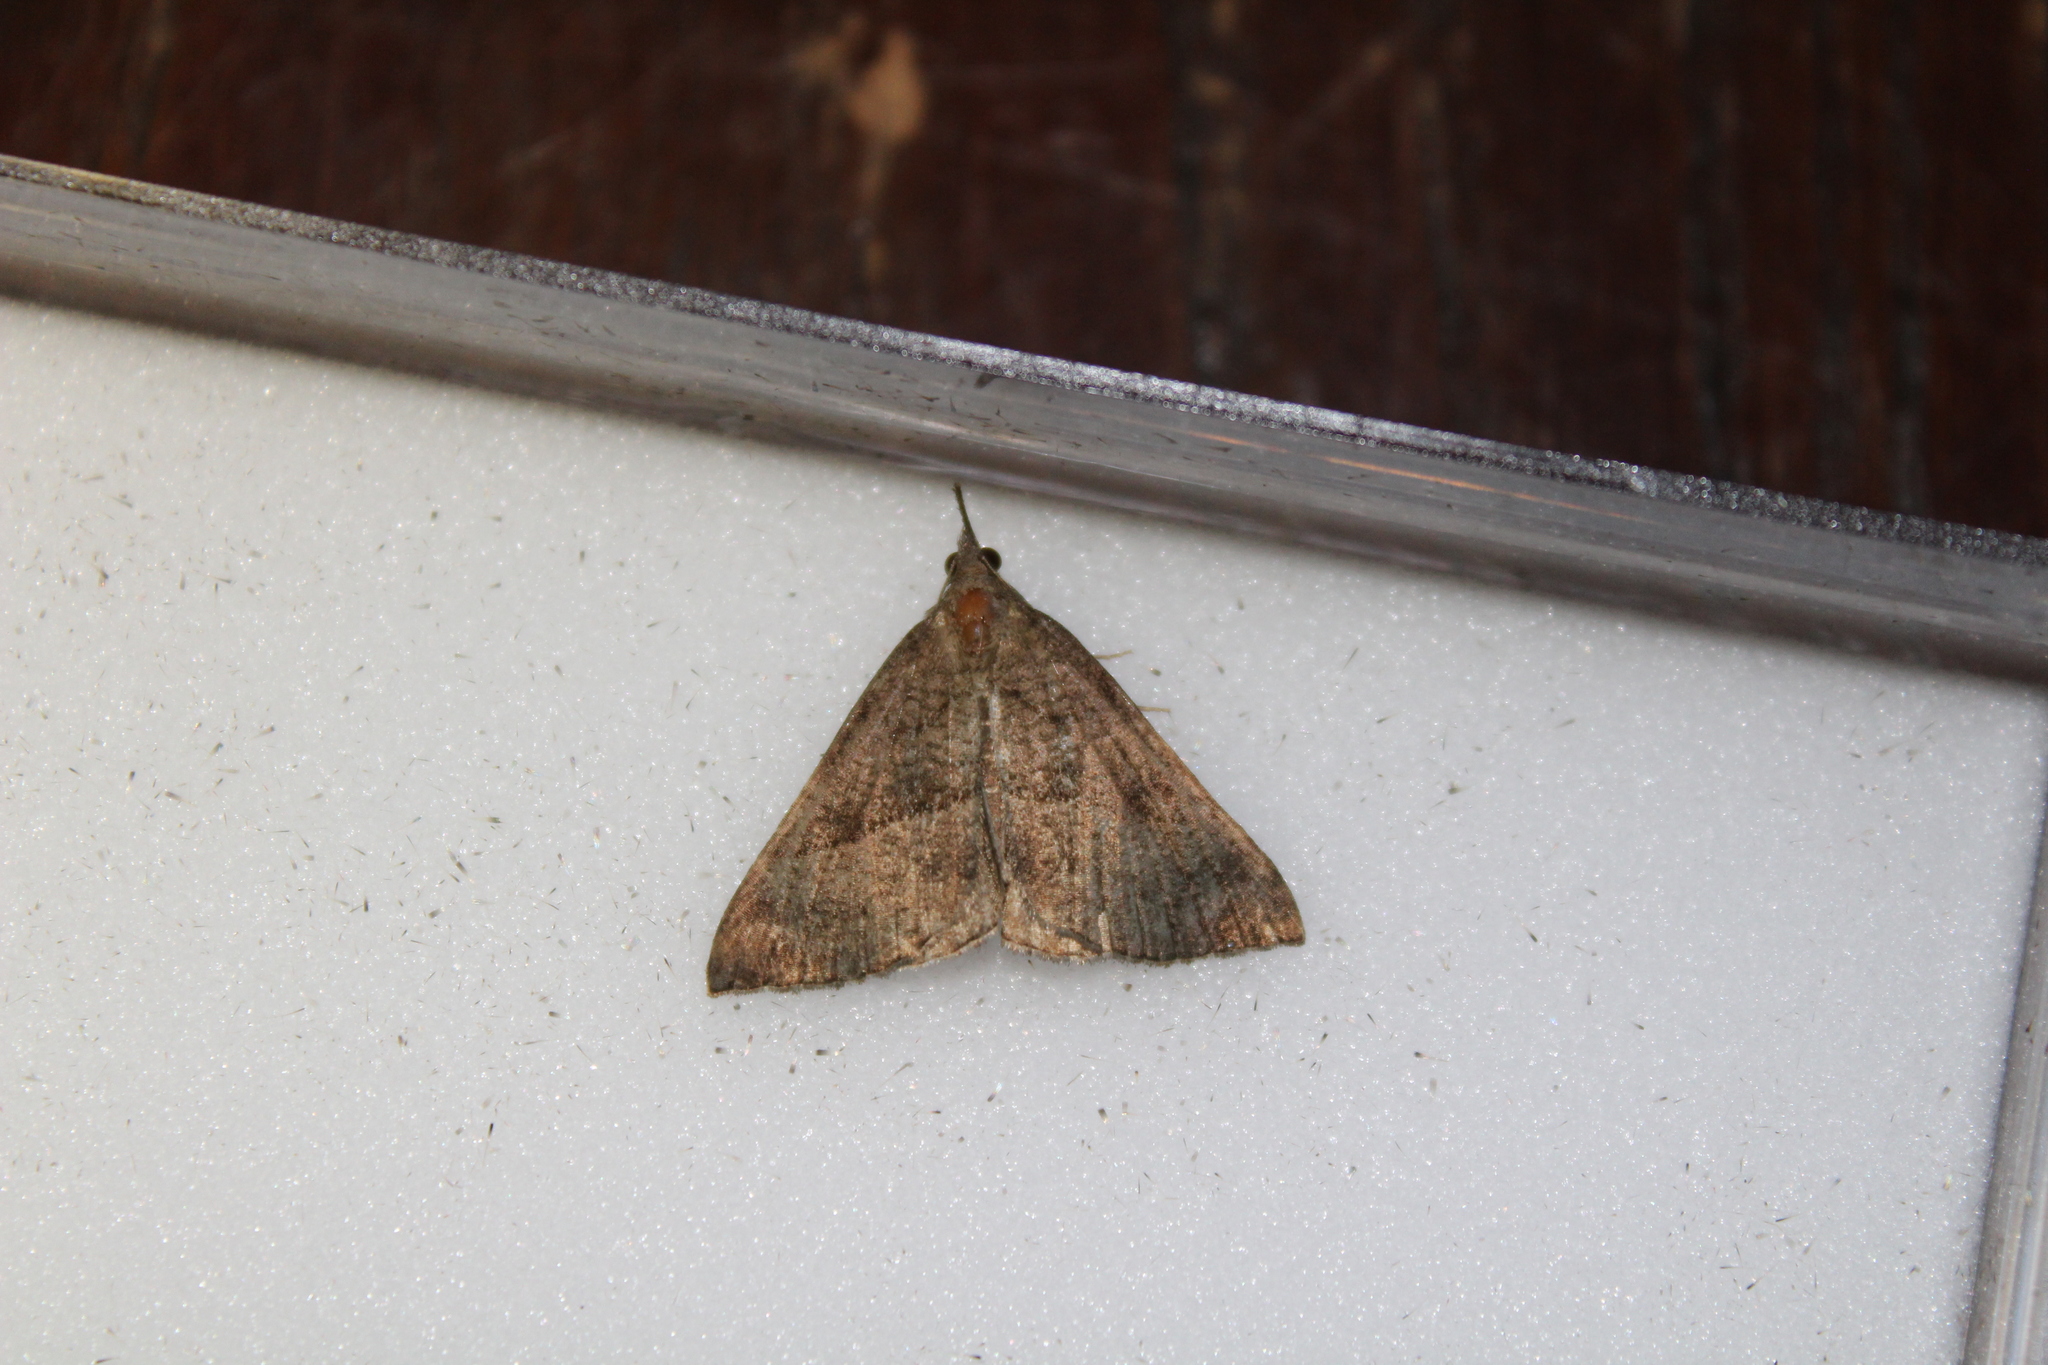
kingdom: Animalia
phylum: Arthropoda
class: Insecta
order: Lepidoptera
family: Erebidae
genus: Hypena
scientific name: Hypena proboscidalis
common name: Snout
